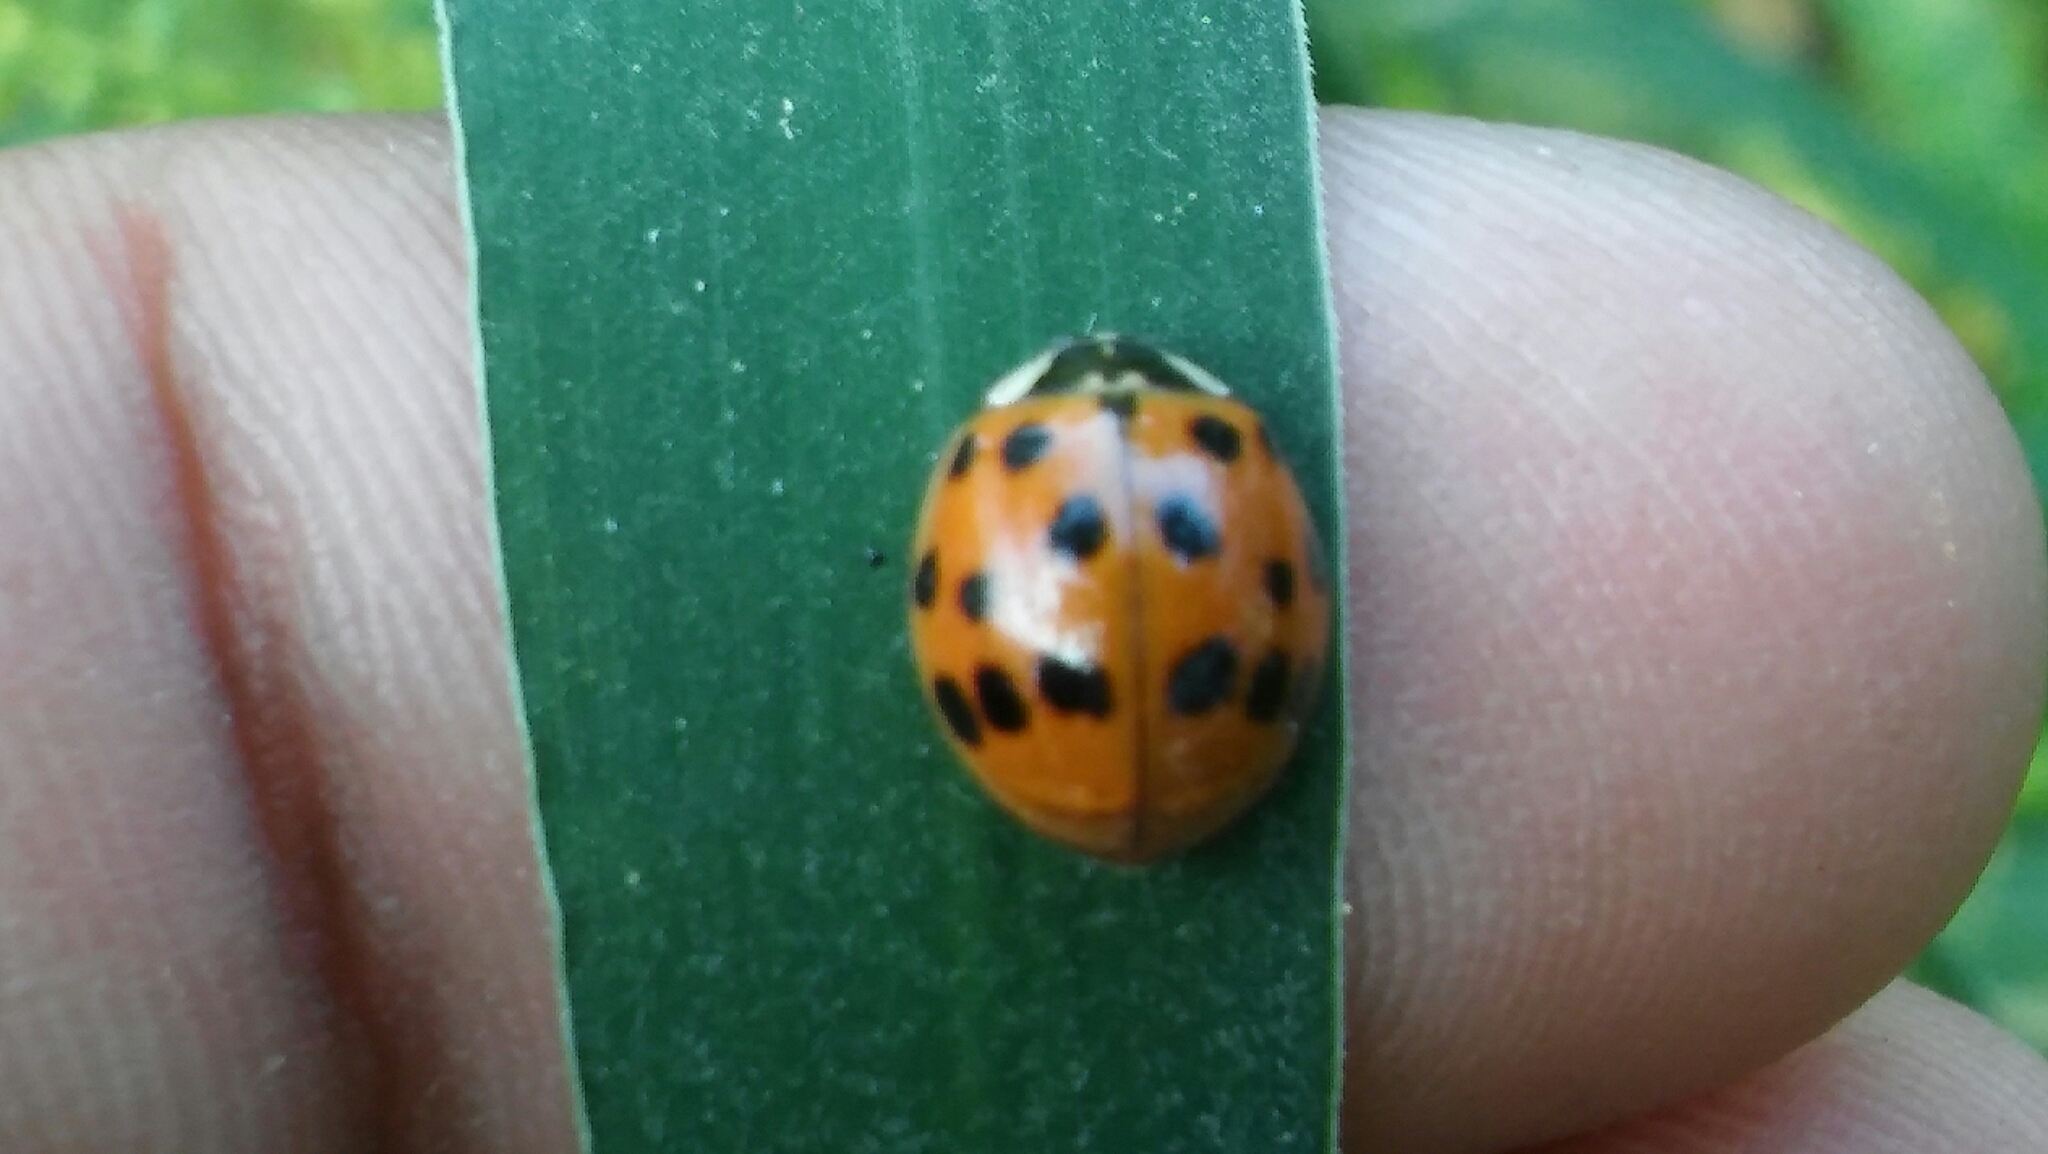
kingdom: Animalia
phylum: Arthropoda
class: Insecta
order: Coleoptera
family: Coccinellidae
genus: Harmonia
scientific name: Harmonia axyridis
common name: Harlequin ladybird
